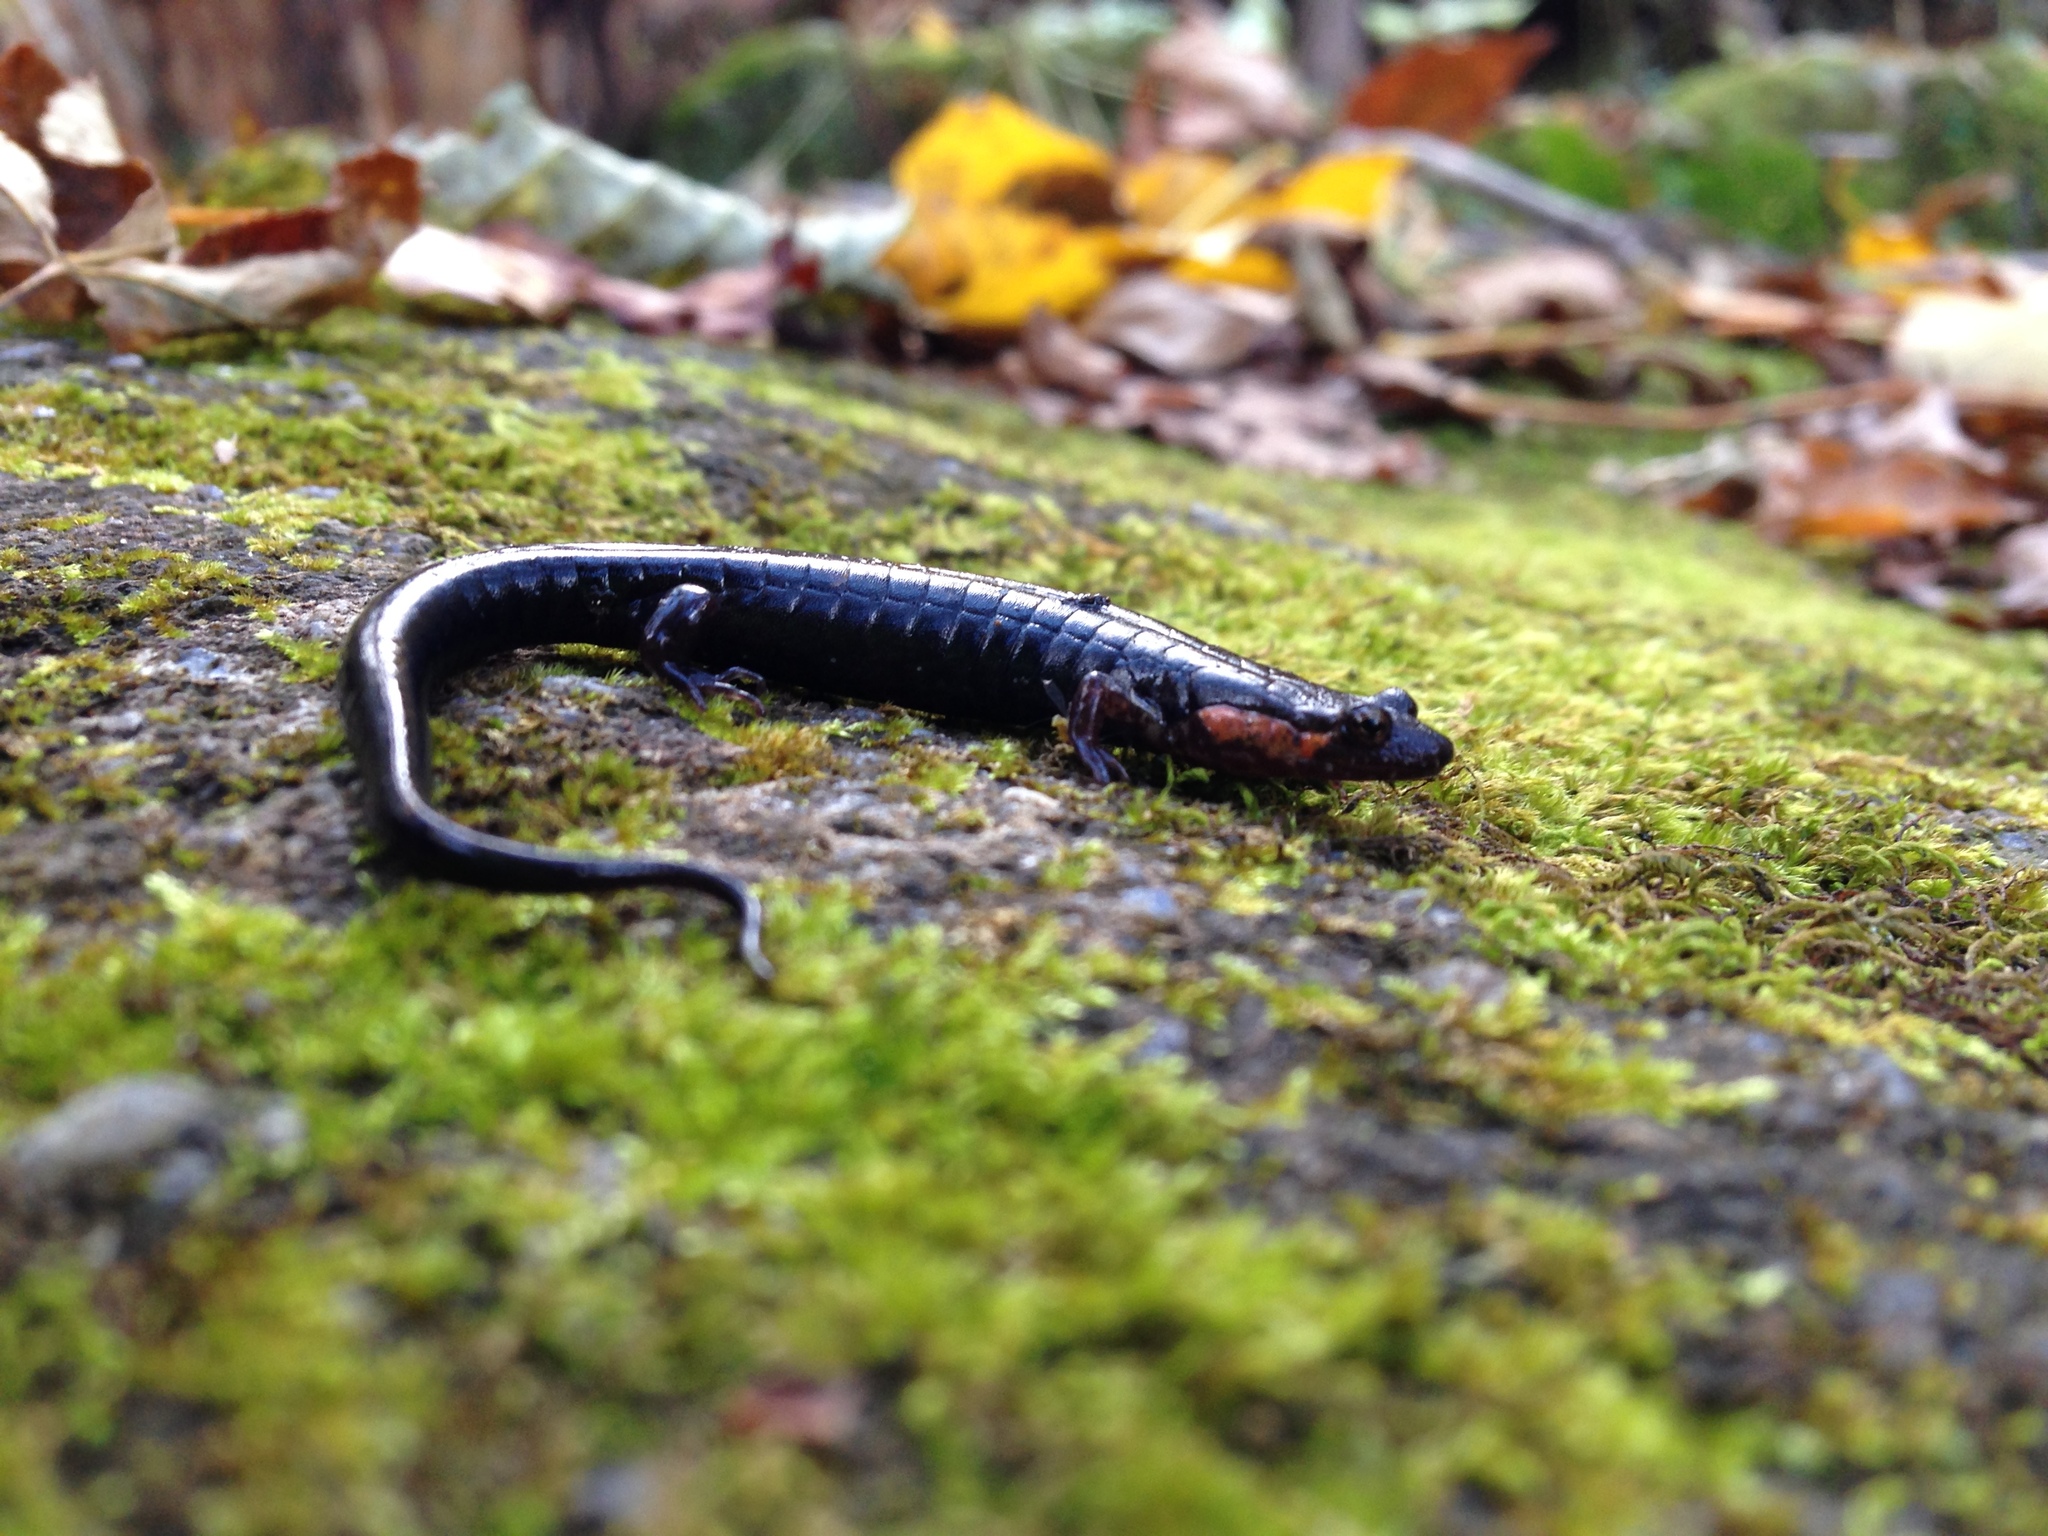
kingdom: Animalia
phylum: Chordata
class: Amphibia
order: Caudata
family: Plethodontidae
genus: Desmognathus
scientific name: Desmognathus imitator
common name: Imitator salamander
